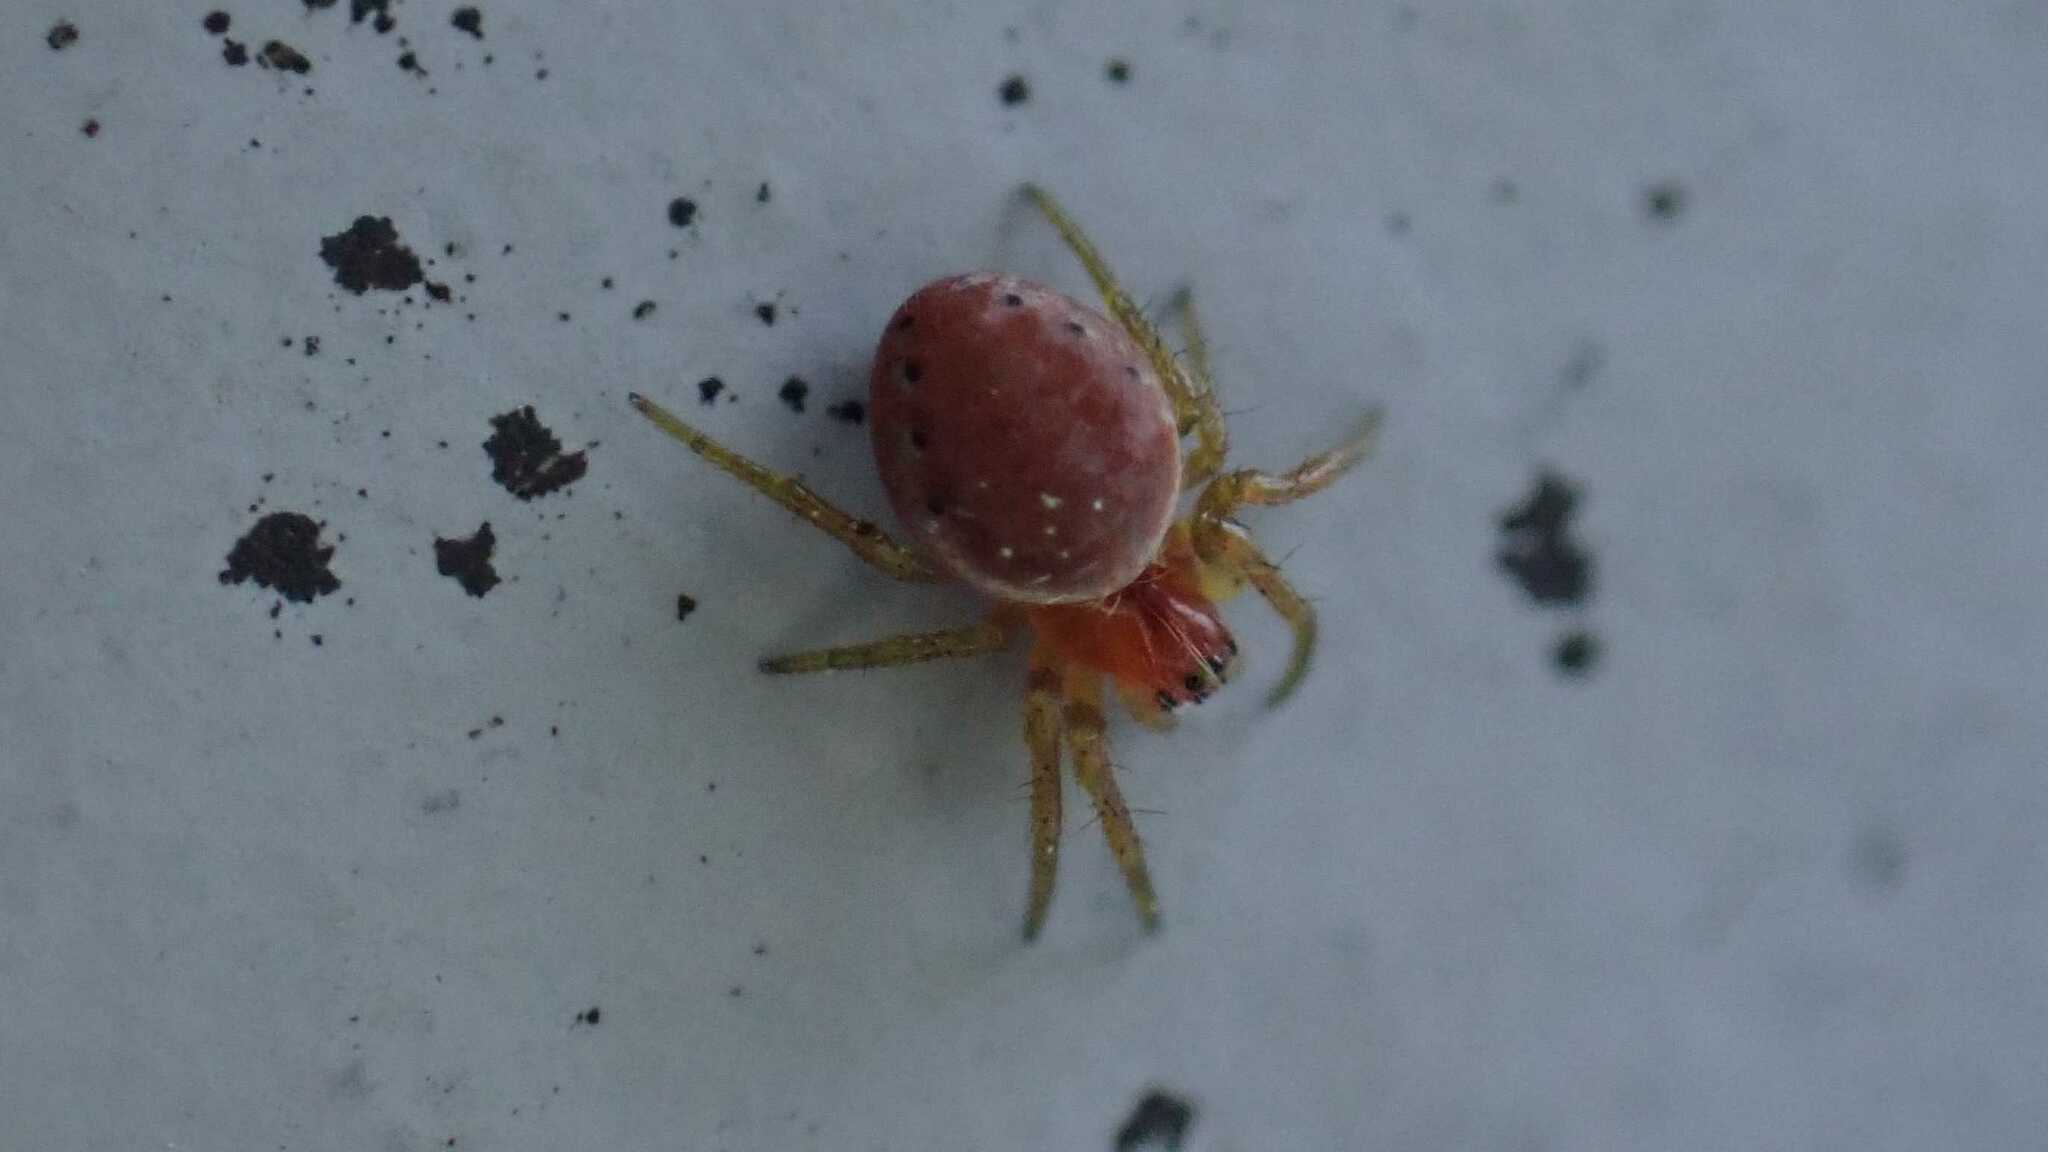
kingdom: Animalia
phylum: Arthropoda
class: Arachnida
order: Araneae
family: Araneidae
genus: Araniella
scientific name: Araniella
